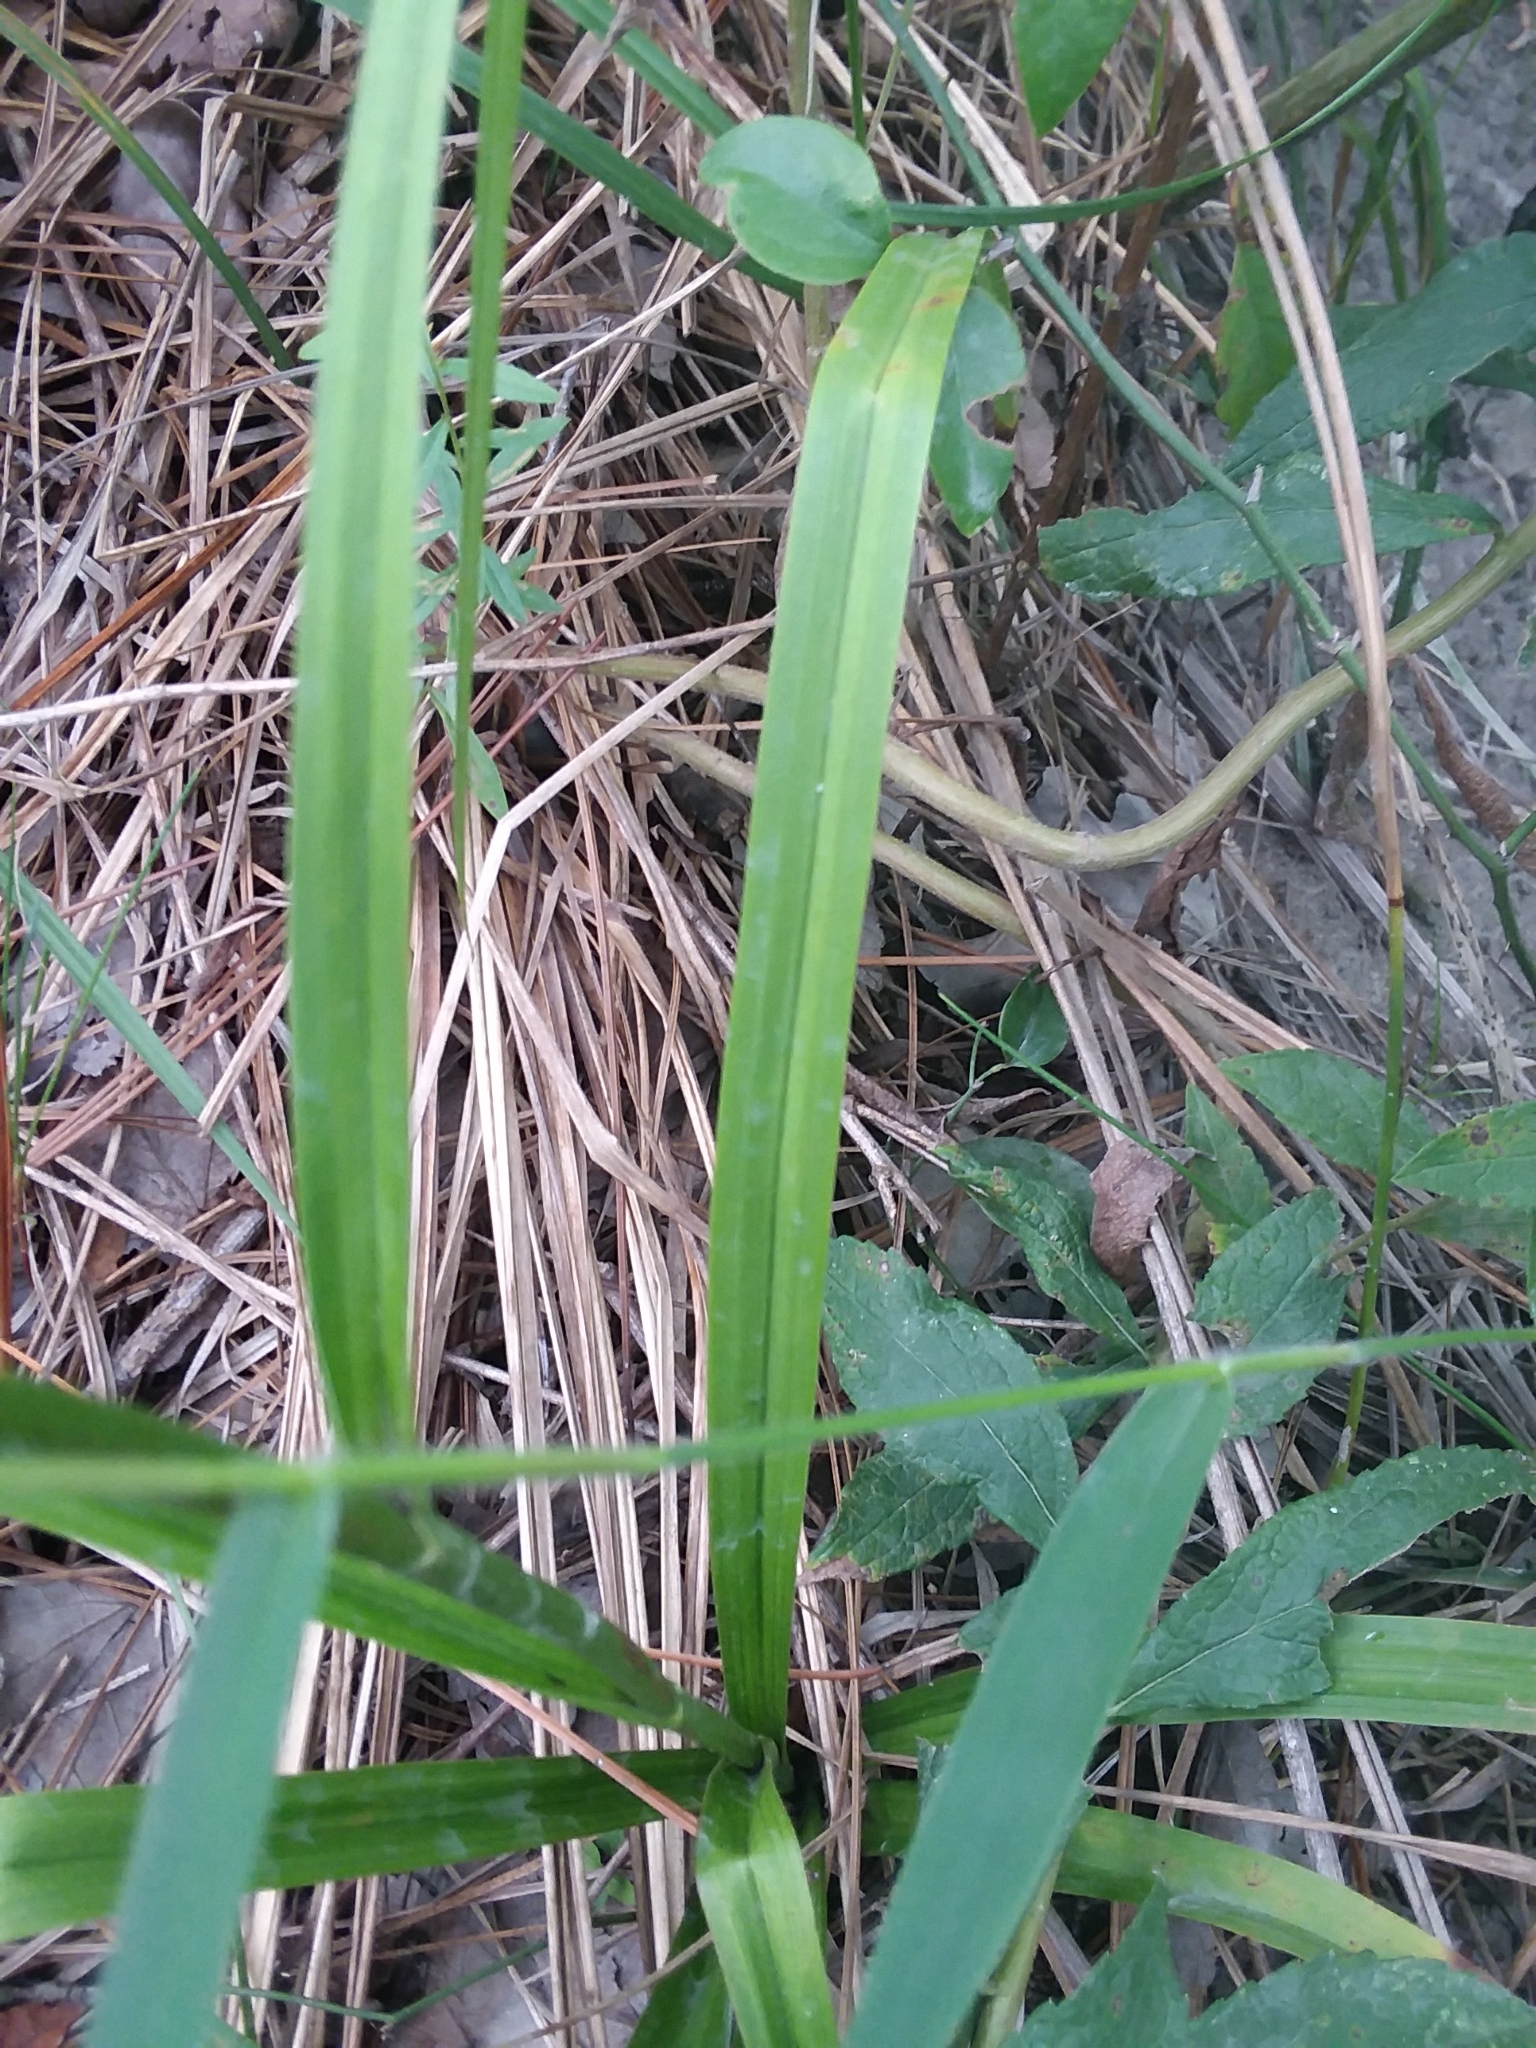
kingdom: Plantae
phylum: Tracheophyta
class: Liliopsida
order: Liliales
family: Melanthiaceae
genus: Melanthium
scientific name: Melanthium virginicum
